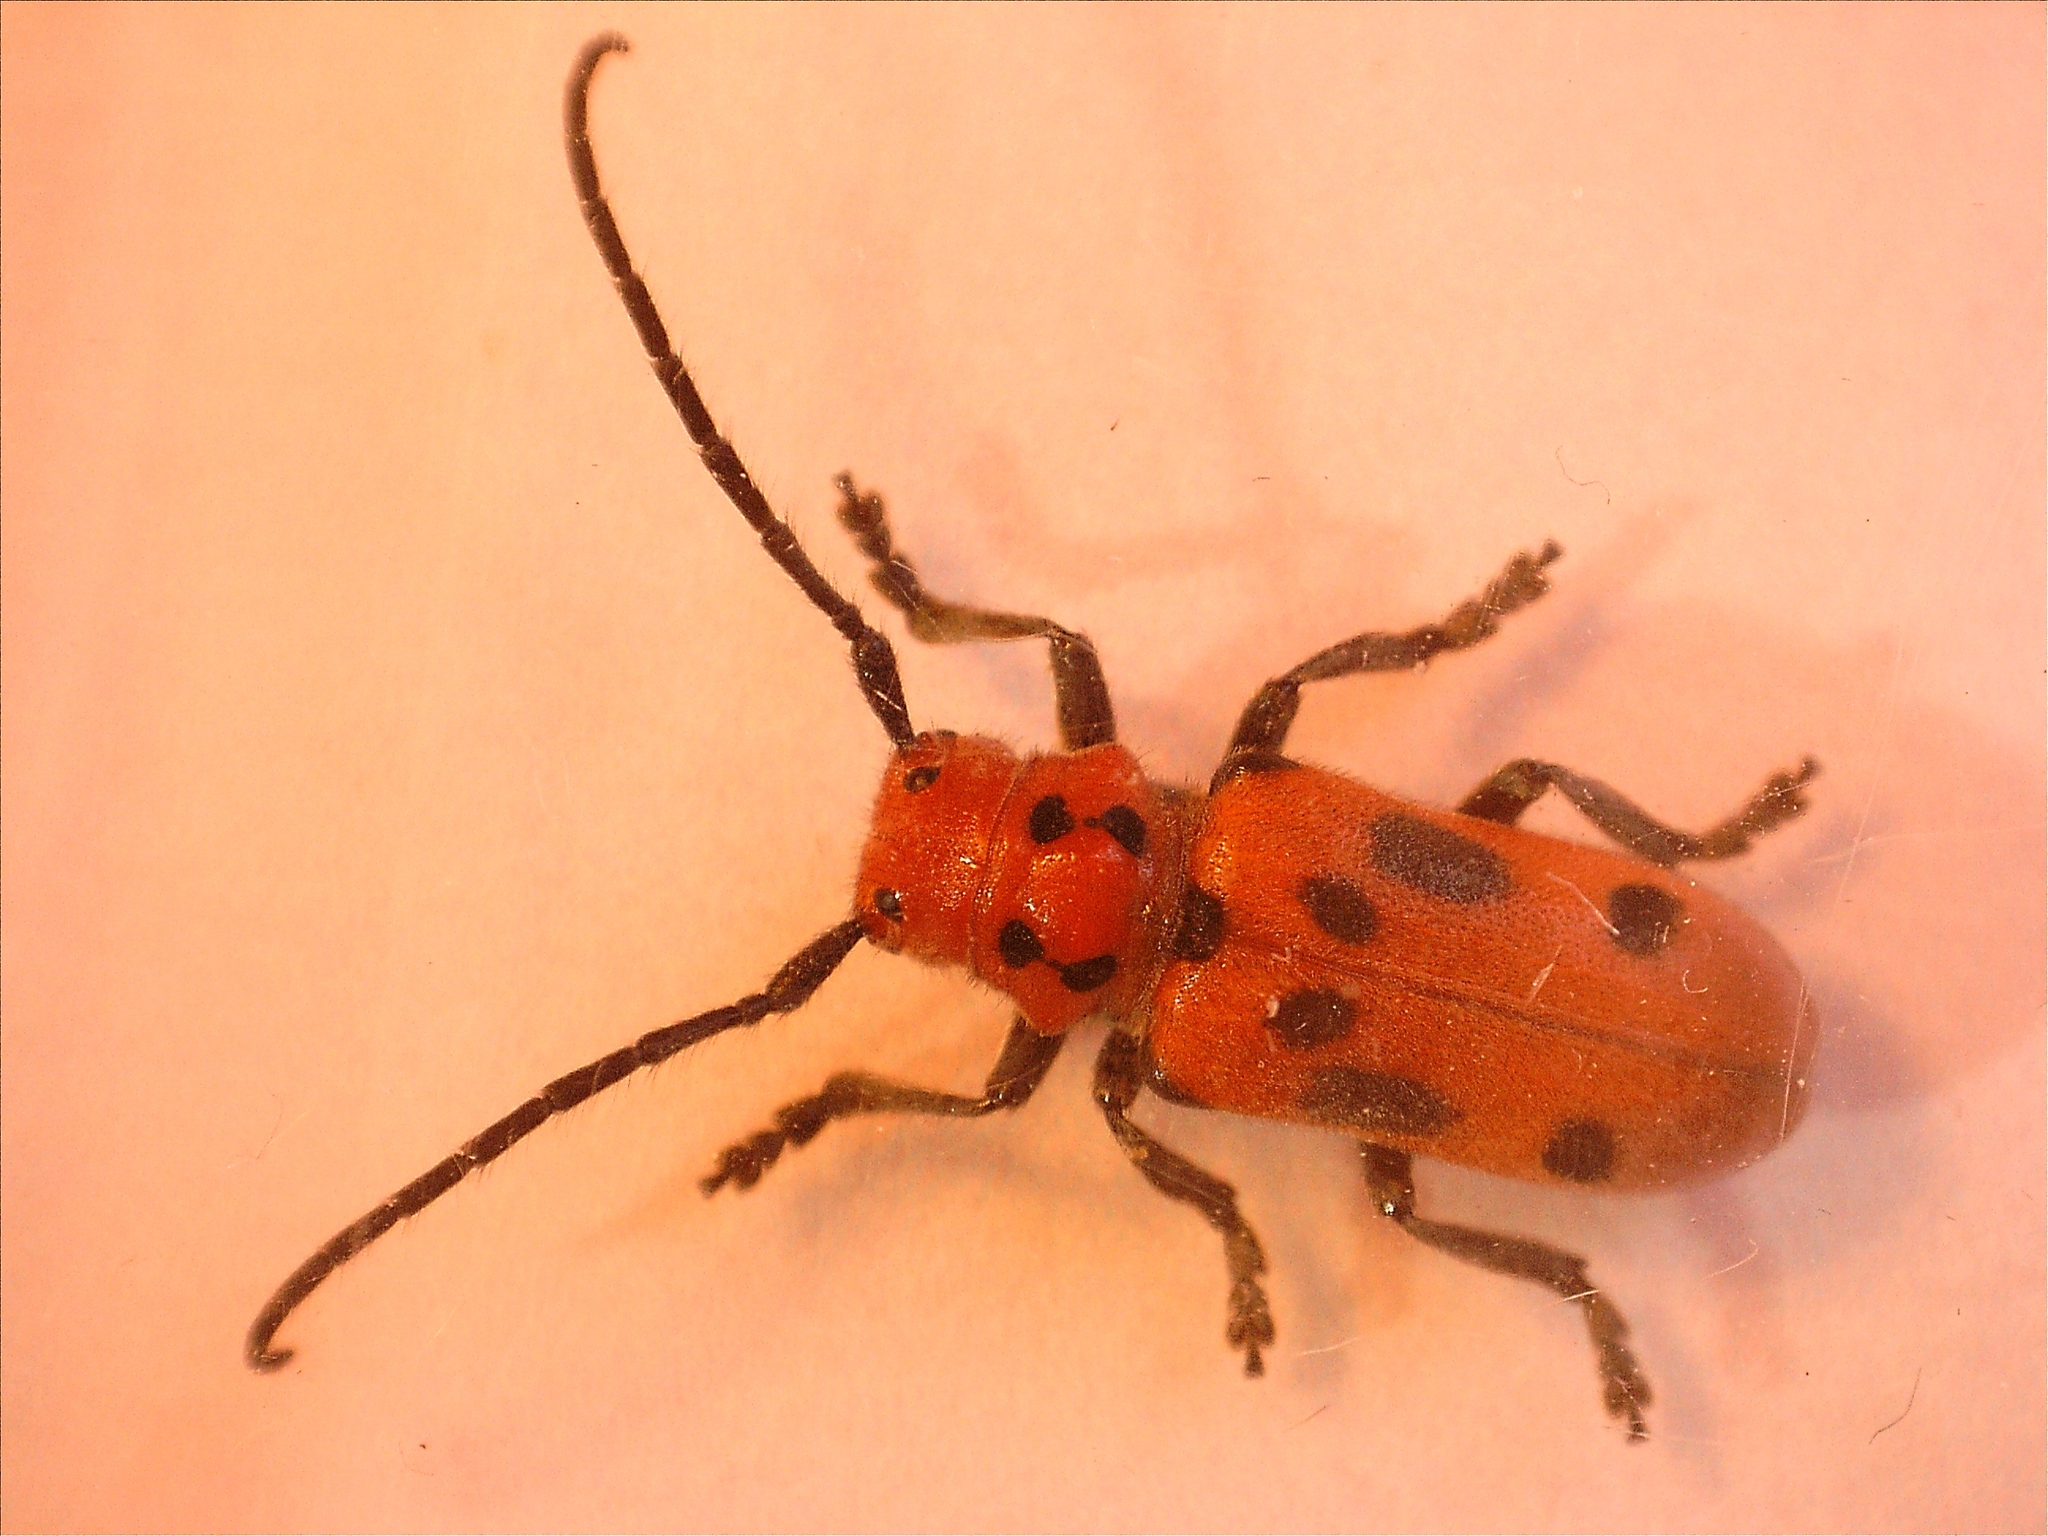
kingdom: Animalia
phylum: Arthropoda
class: Insecta
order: Coleoptera
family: Cerambycidae
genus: Tetraopes
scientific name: Tetraopes tetrophthalmus
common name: Red milkweed beetle
